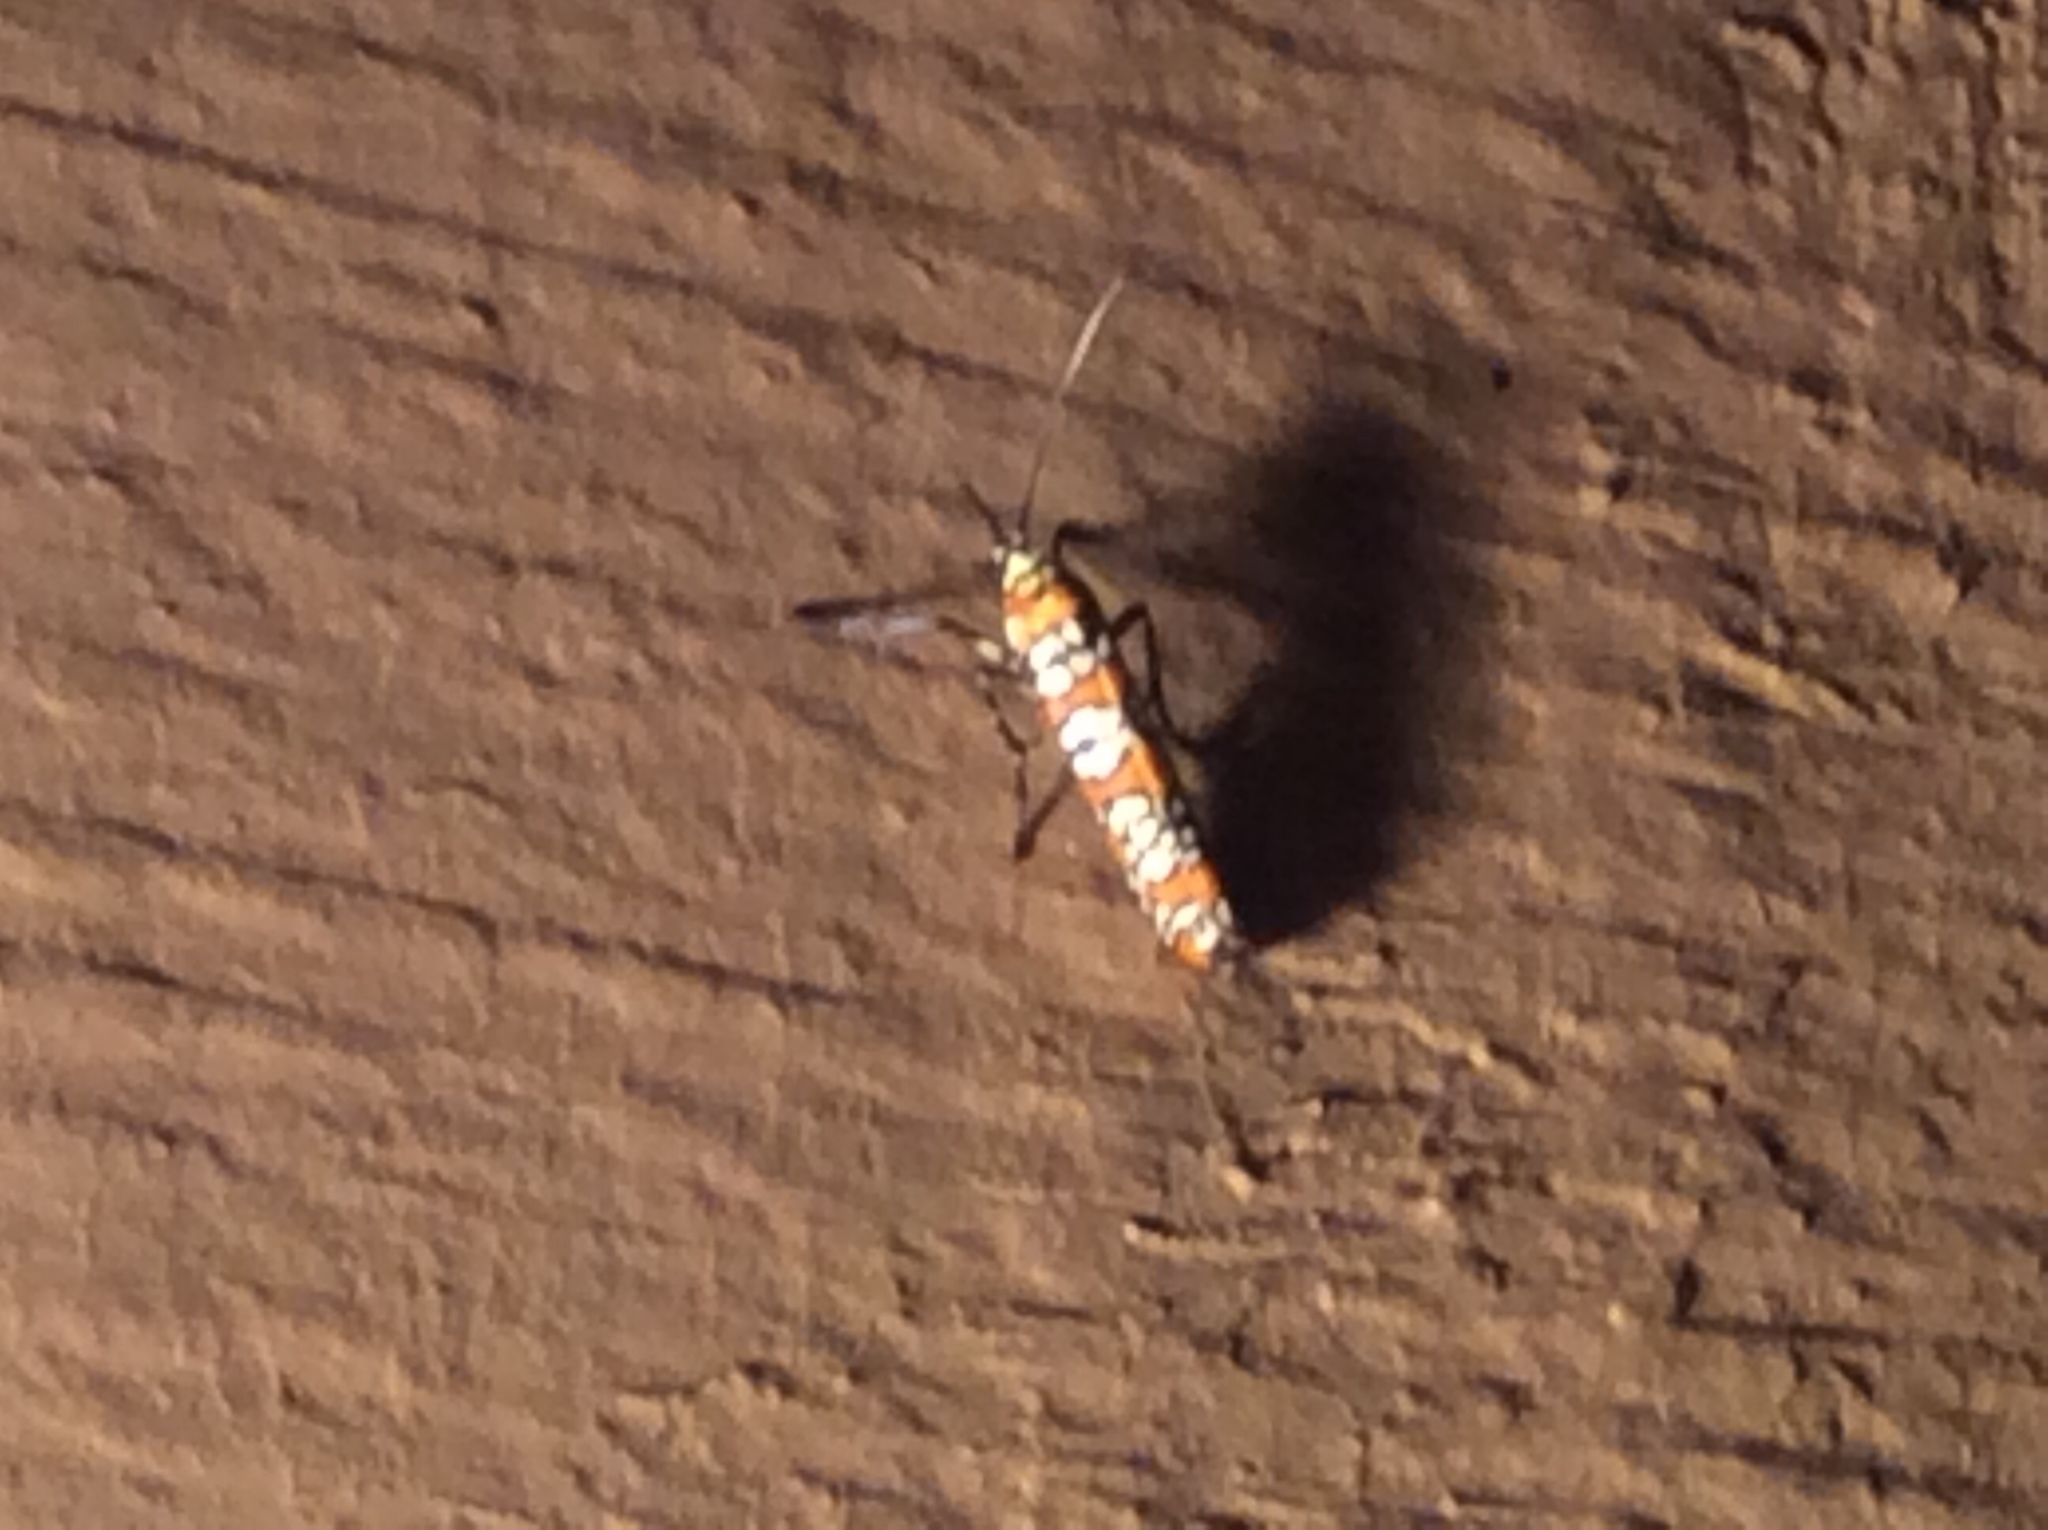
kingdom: Animalia
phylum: Arthropoda
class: Insecta
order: Lepidoptera
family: Attevidae
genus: Atteva
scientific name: Atteva punctella
